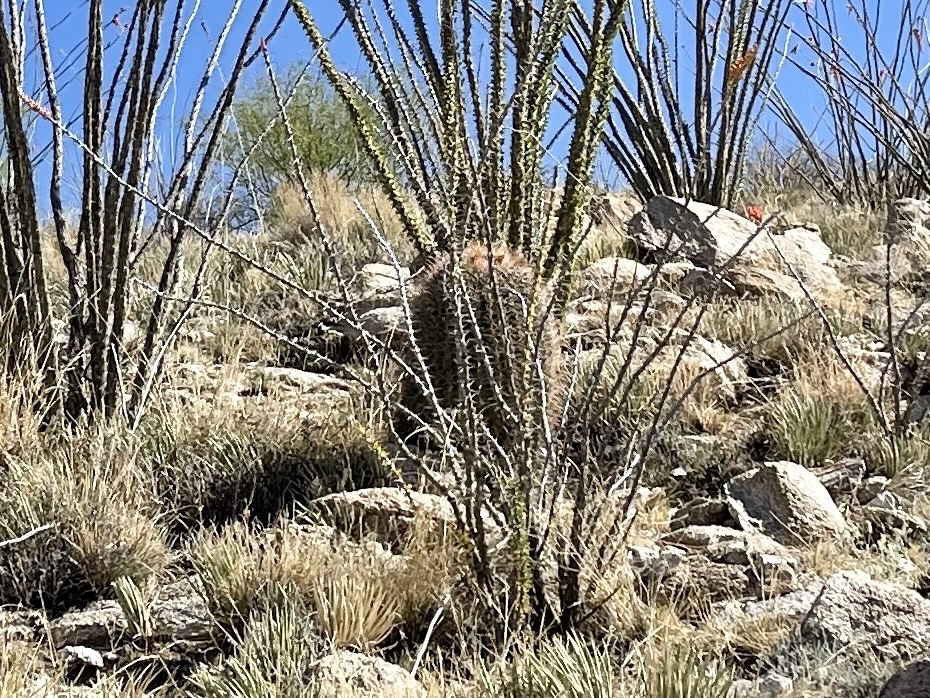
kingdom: Plantae
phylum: Tracheophyta
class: Magnoliopsida
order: Caryophyllales
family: Cactaceae
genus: Ferocactus
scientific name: Ferocactus wislizeni
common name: Candy barrel cactus
